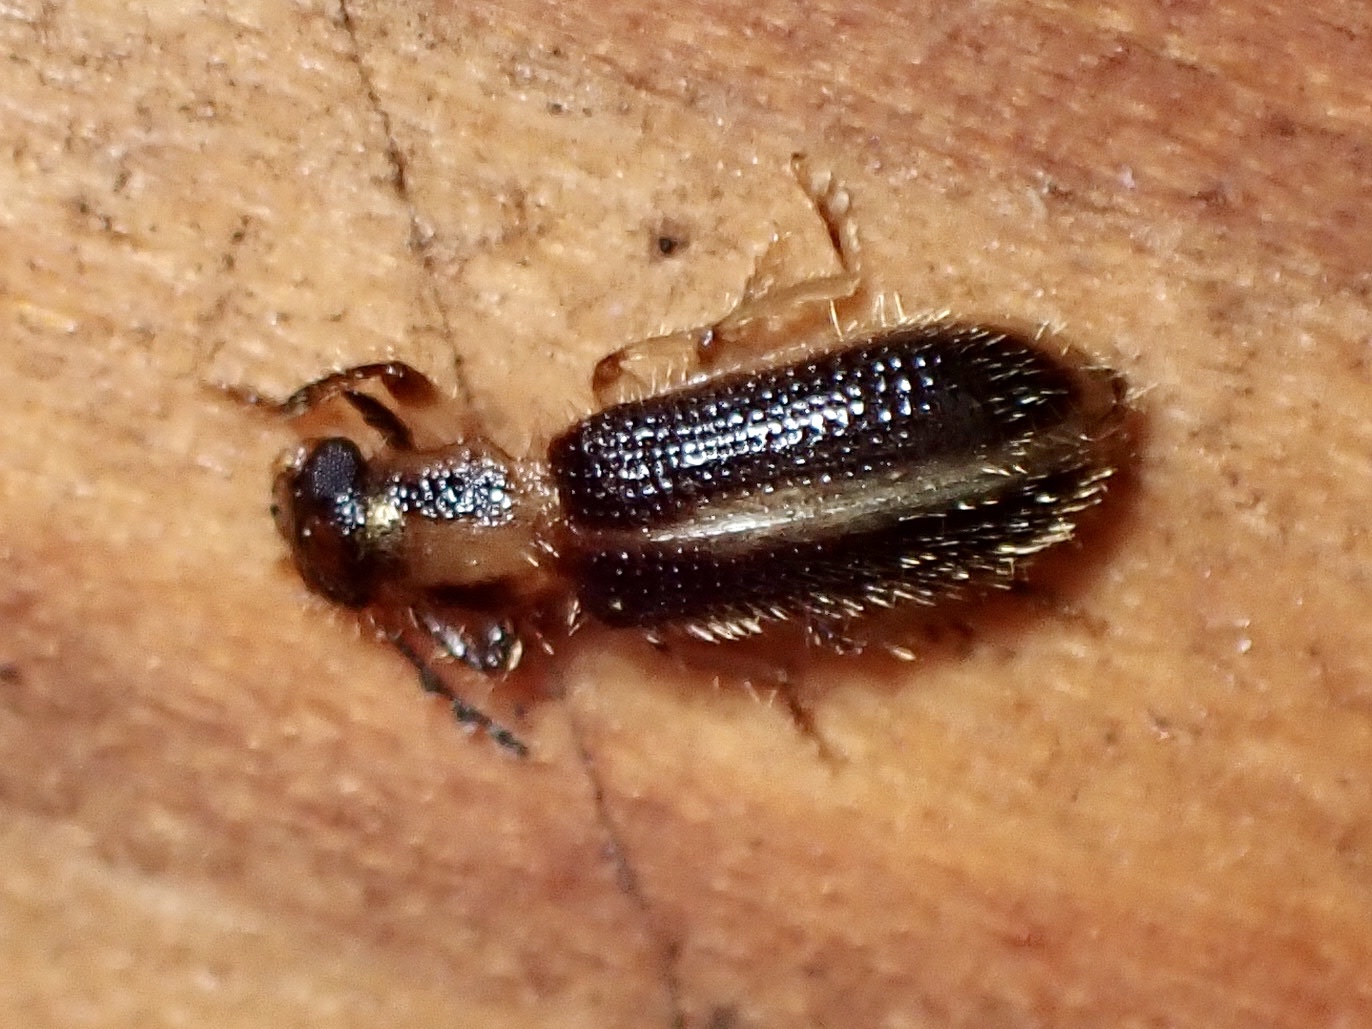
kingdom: Animalia
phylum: Arthropoda
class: Insecta
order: Coleoptera
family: Cleridae
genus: Cregya
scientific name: Cregya oculata
